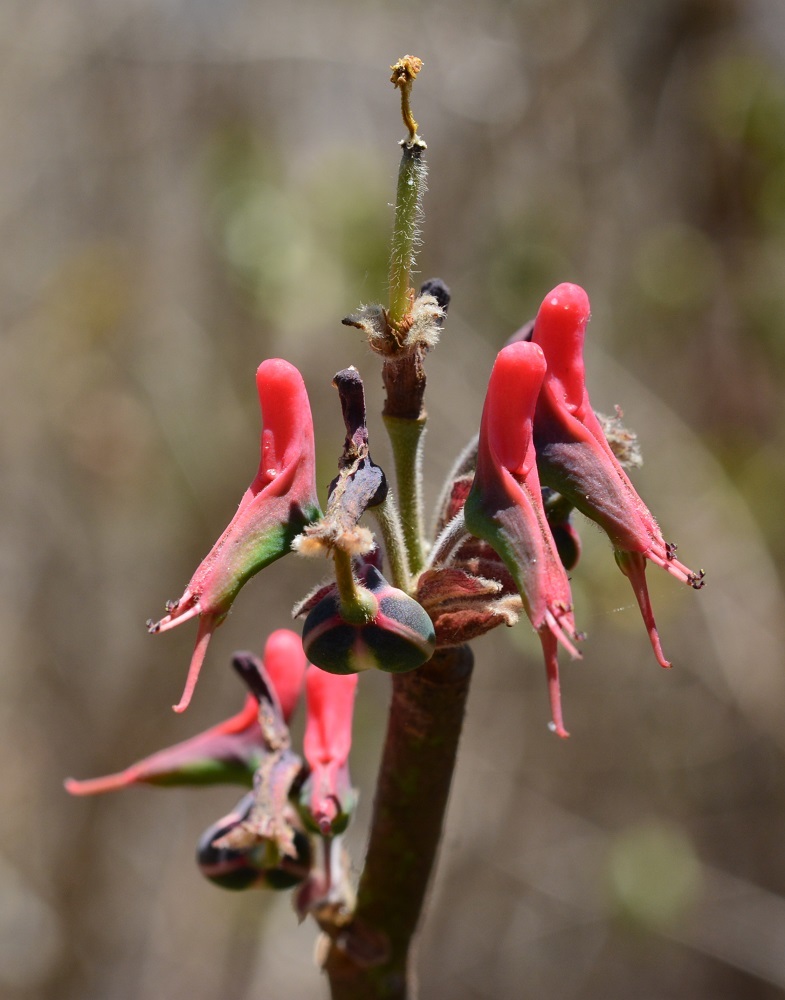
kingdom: Plantae
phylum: Tracheophyta
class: Magnoliopsida
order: Malpighiales
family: Euphorbiaceae
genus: Euphorbia
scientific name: Euphorbia calcarata
